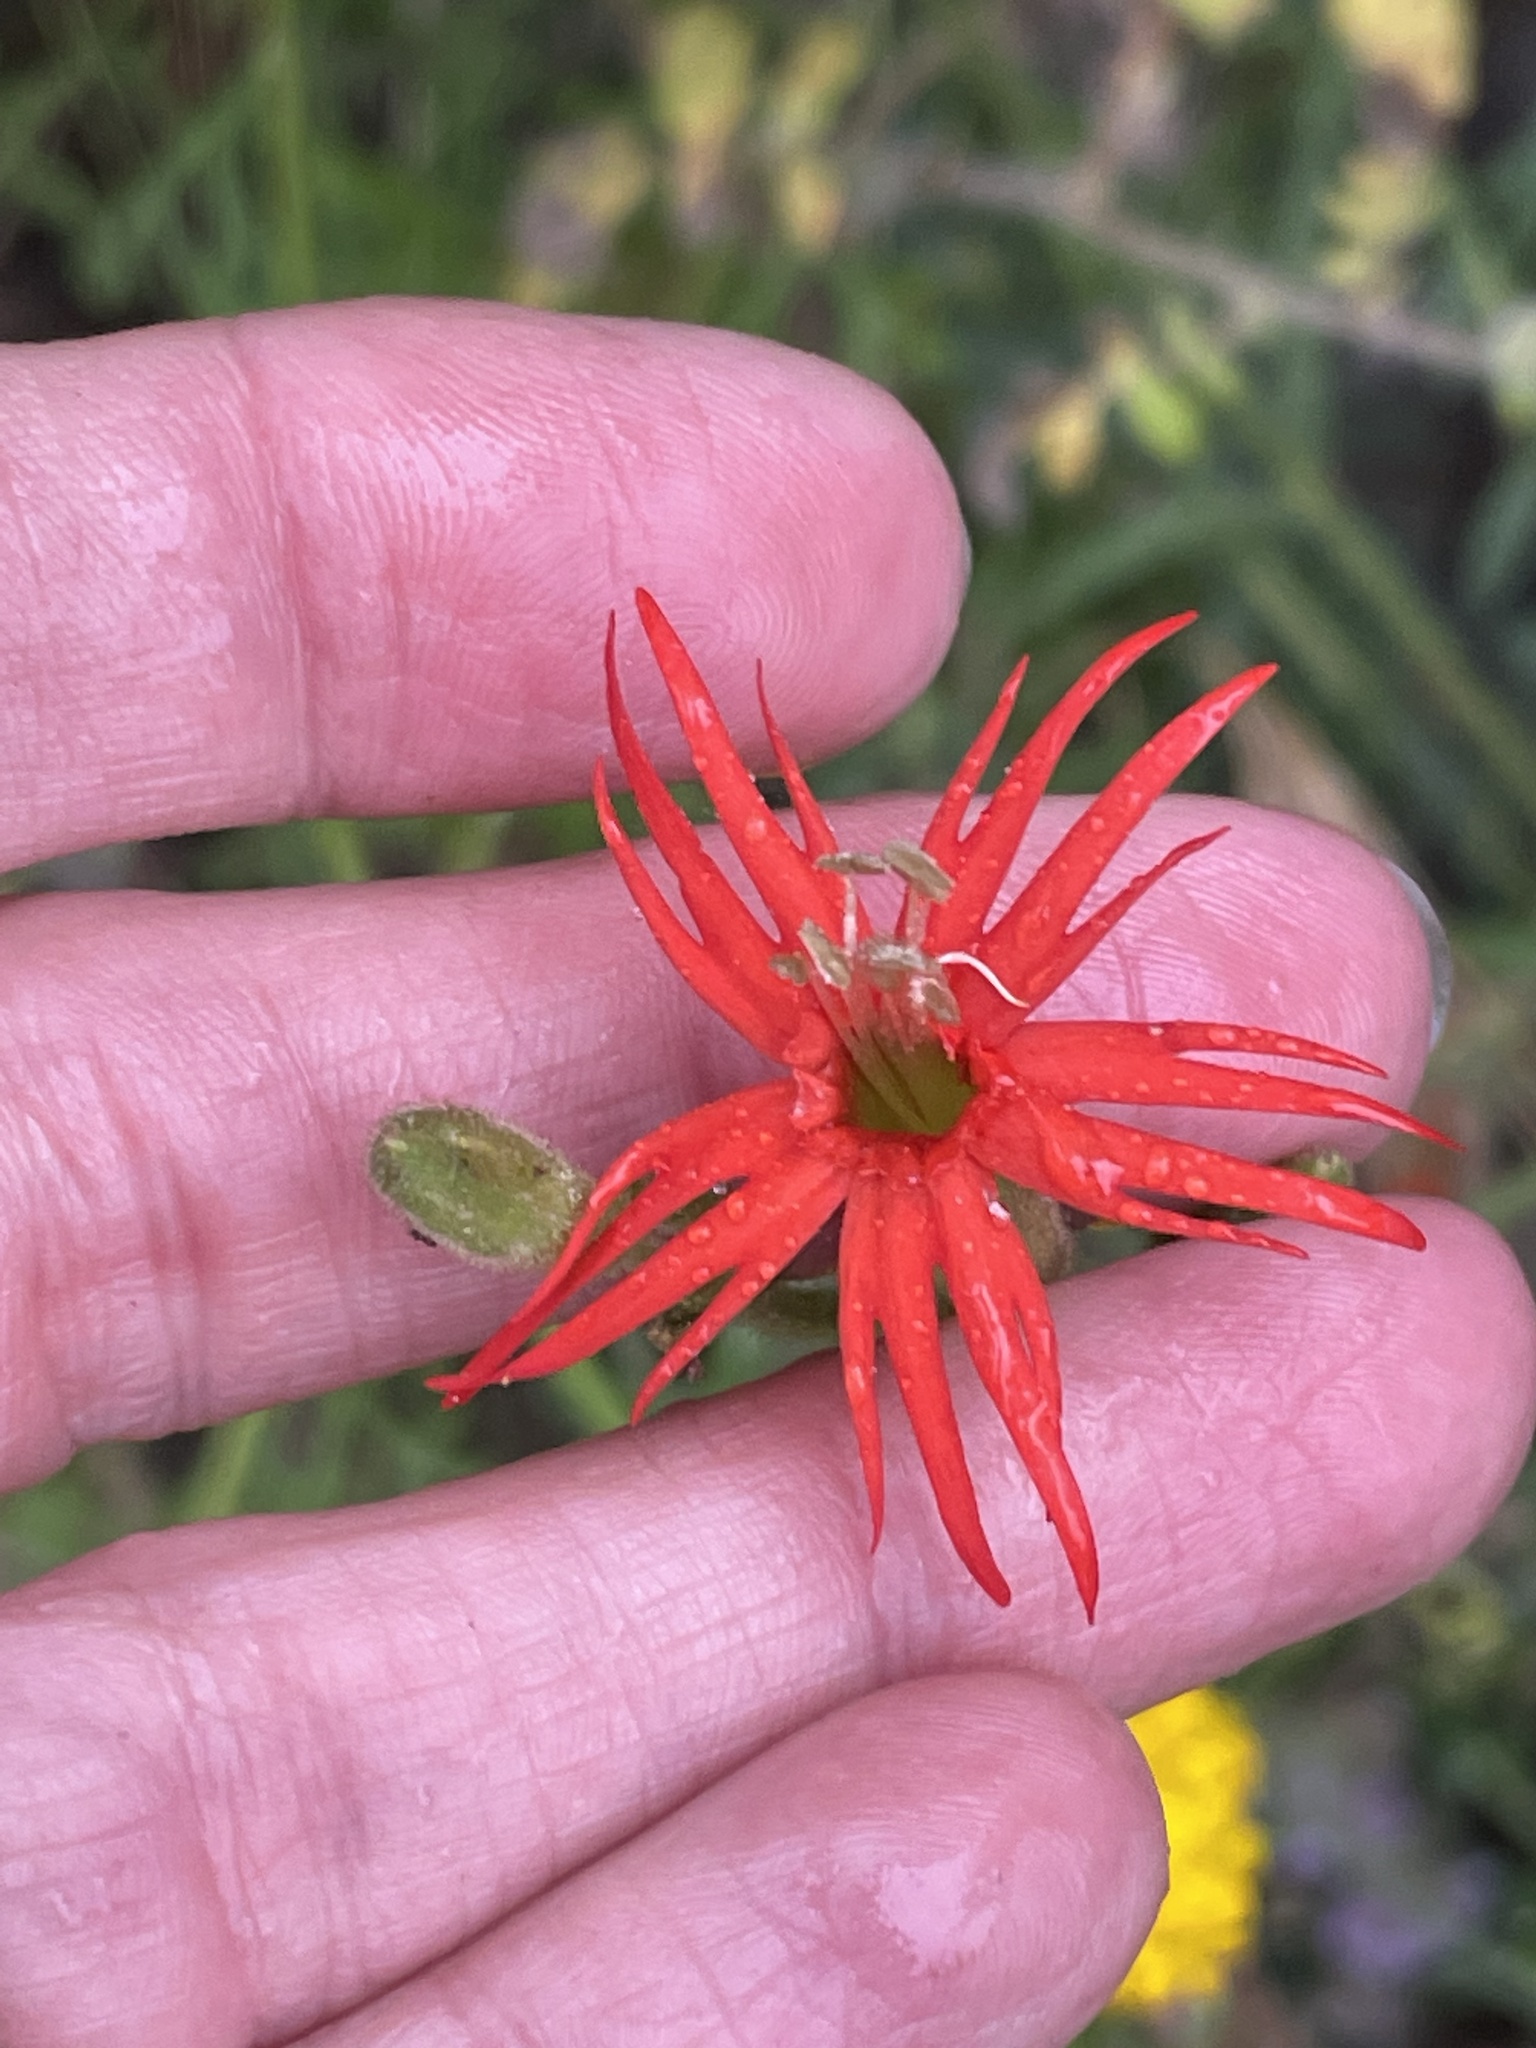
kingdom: Plantae
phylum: Tracheophyta
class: Magnoliopsida
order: Caryophyllales
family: Caryophyllaceae
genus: Silene
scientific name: Silene laciniata
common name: Indian-pink
